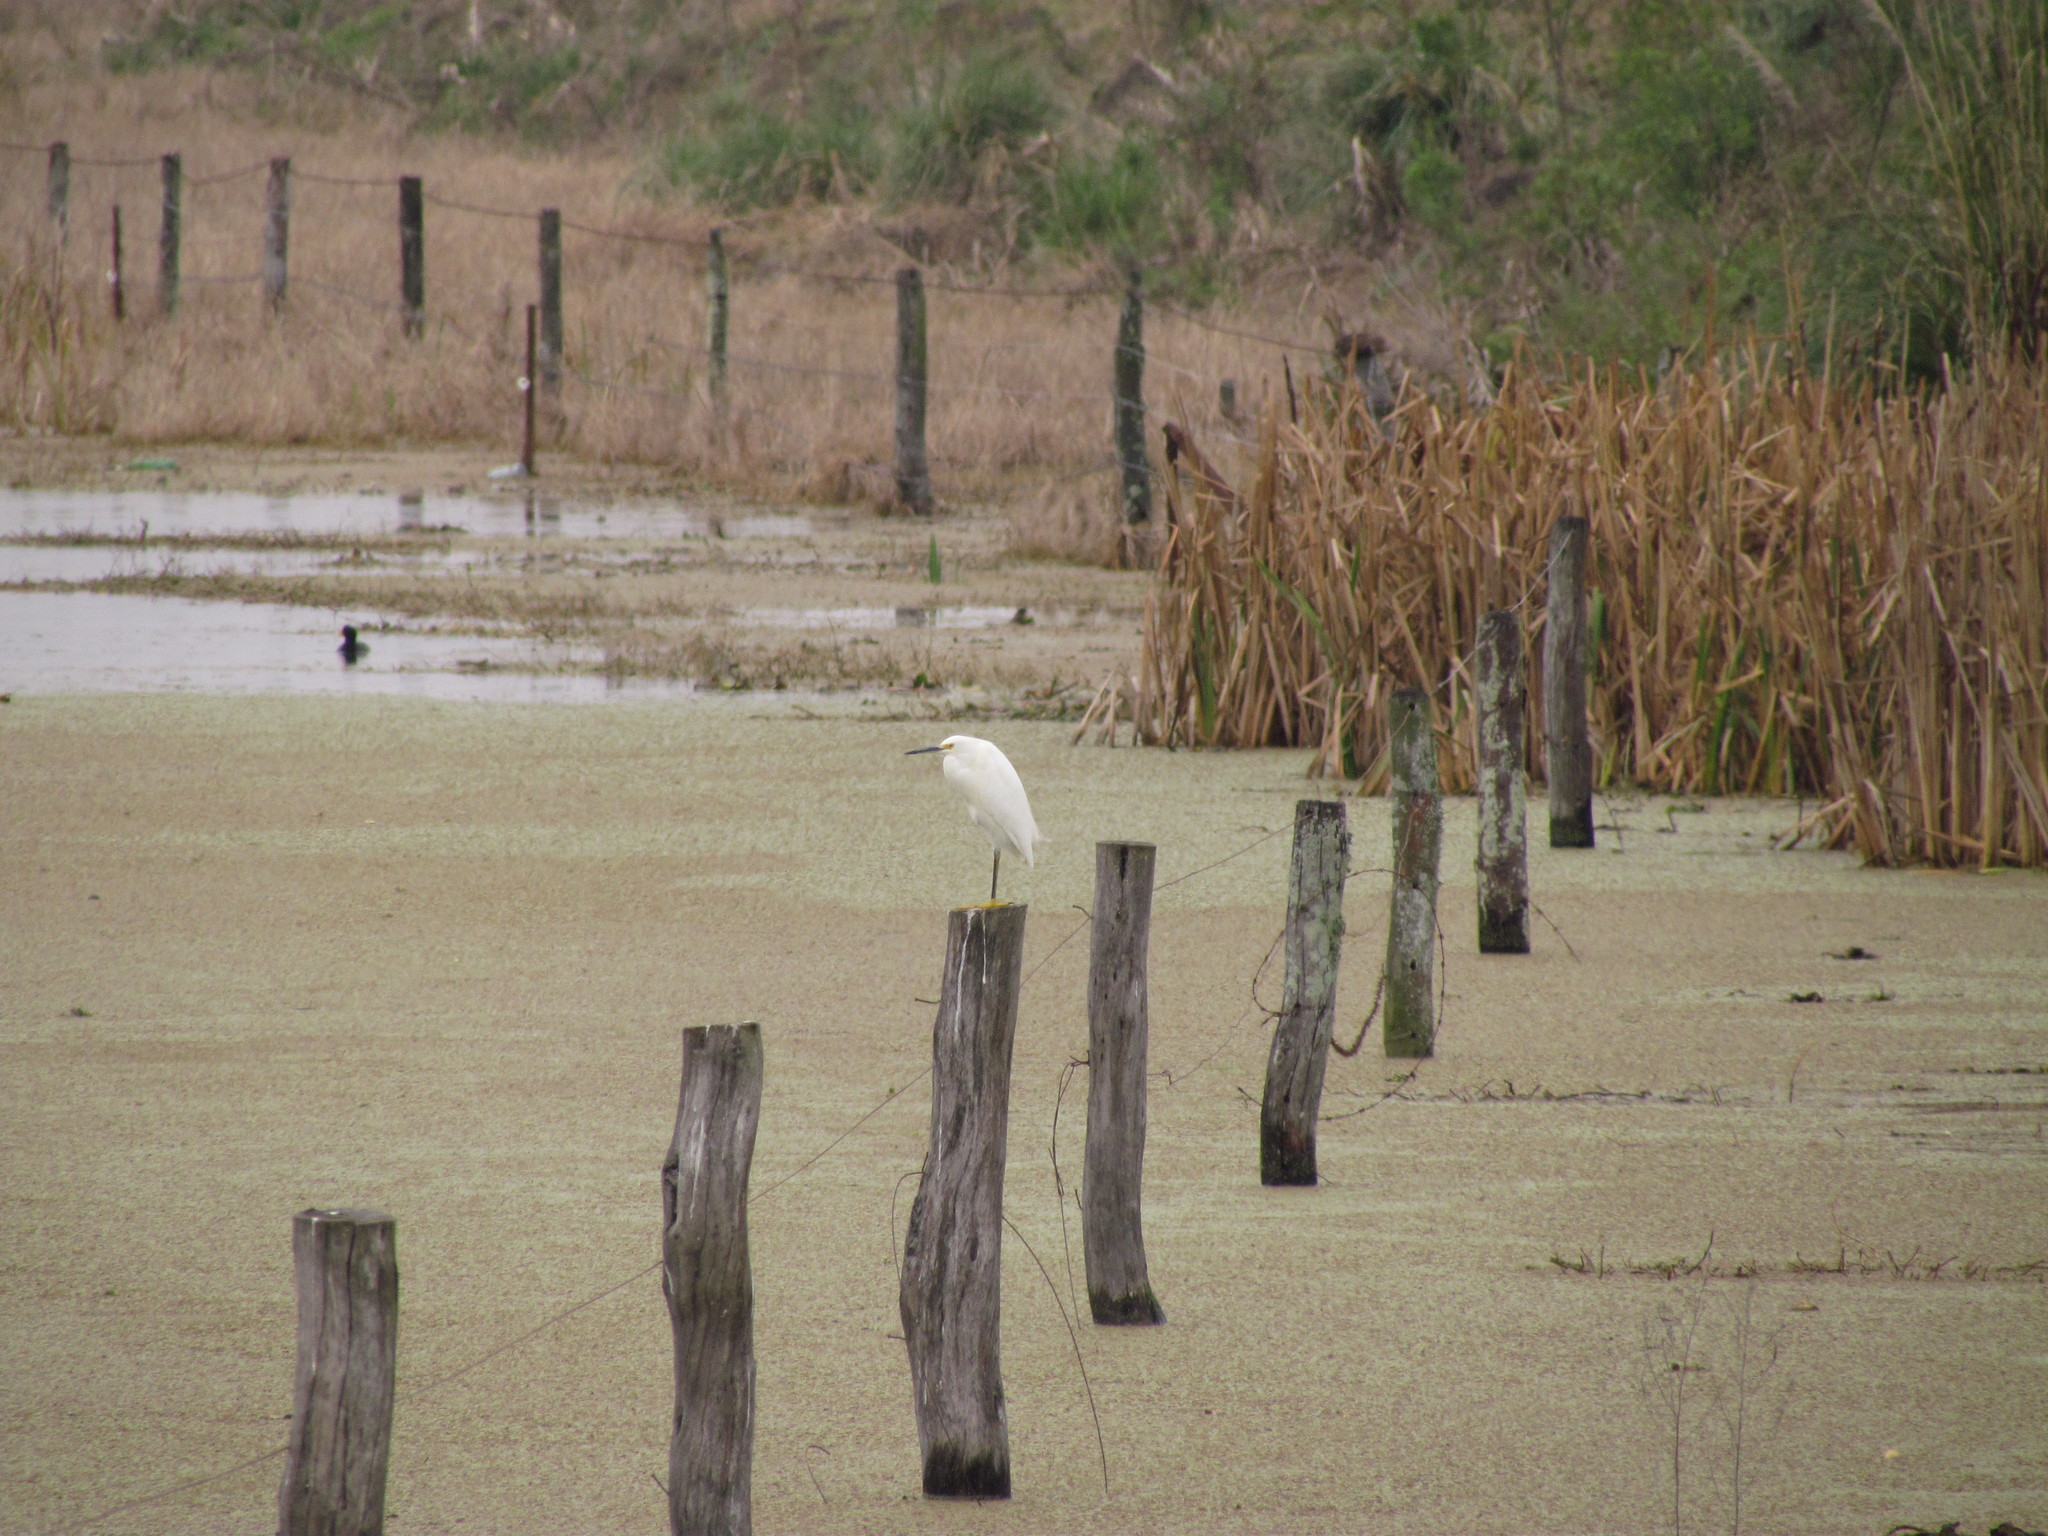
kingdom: Animalia
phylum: Chordata
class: Aves
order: Pelecaniformes
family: Ardeidae
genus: Egretta
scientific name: Egretta thula
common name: Snowy egret
